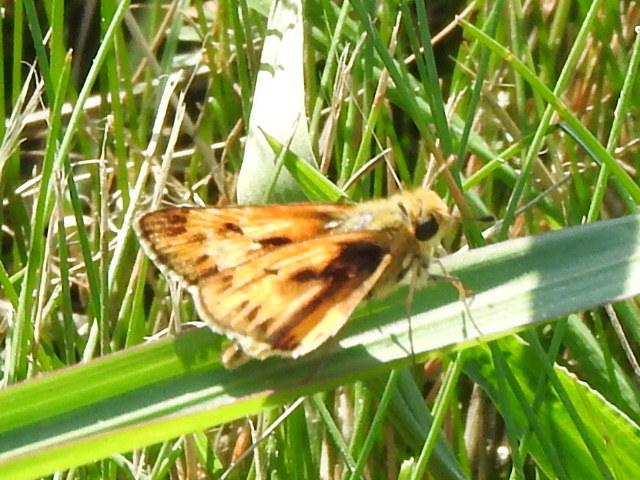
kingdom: Animalia
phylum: Arthropoda
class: Insecta
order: Lepidoptera
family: Hesperiidae
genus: Hylephila
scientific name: Hylephila phyleus
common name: Fiery skipper
